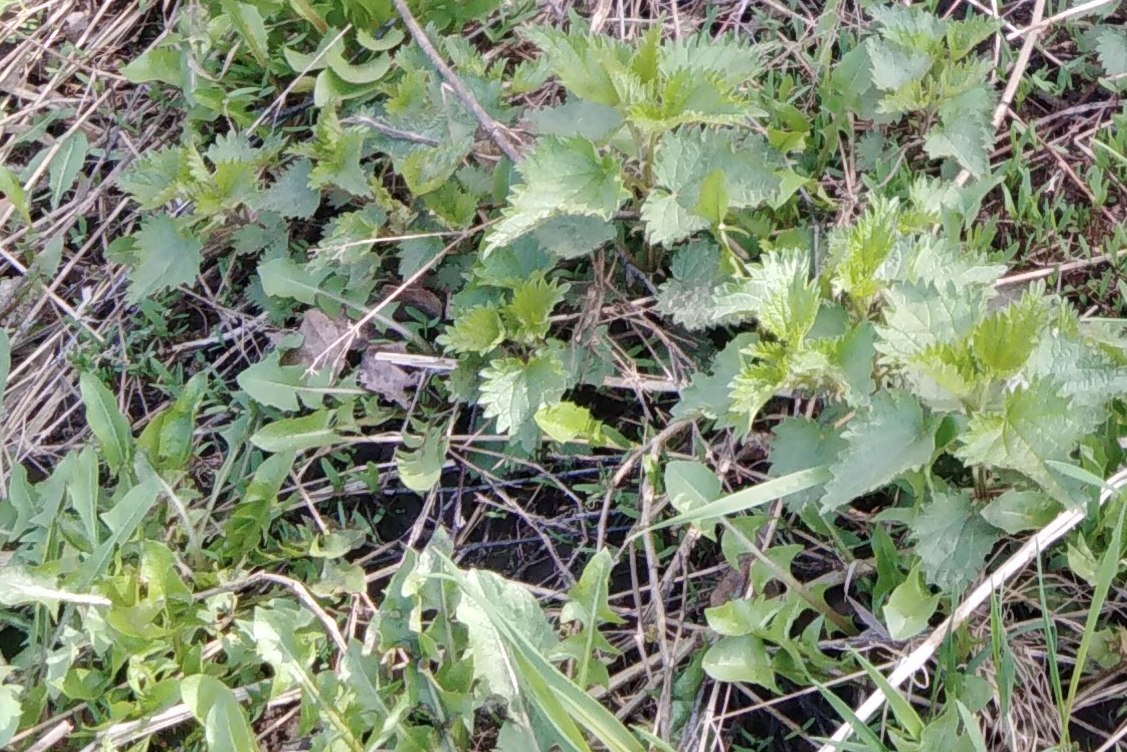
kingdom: Plantae
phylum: Tracheophyta
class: Magnoliopsida
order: Rosales
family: Urticaceae
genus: Urtica
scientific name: Urtica dioica
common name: Common nettle
